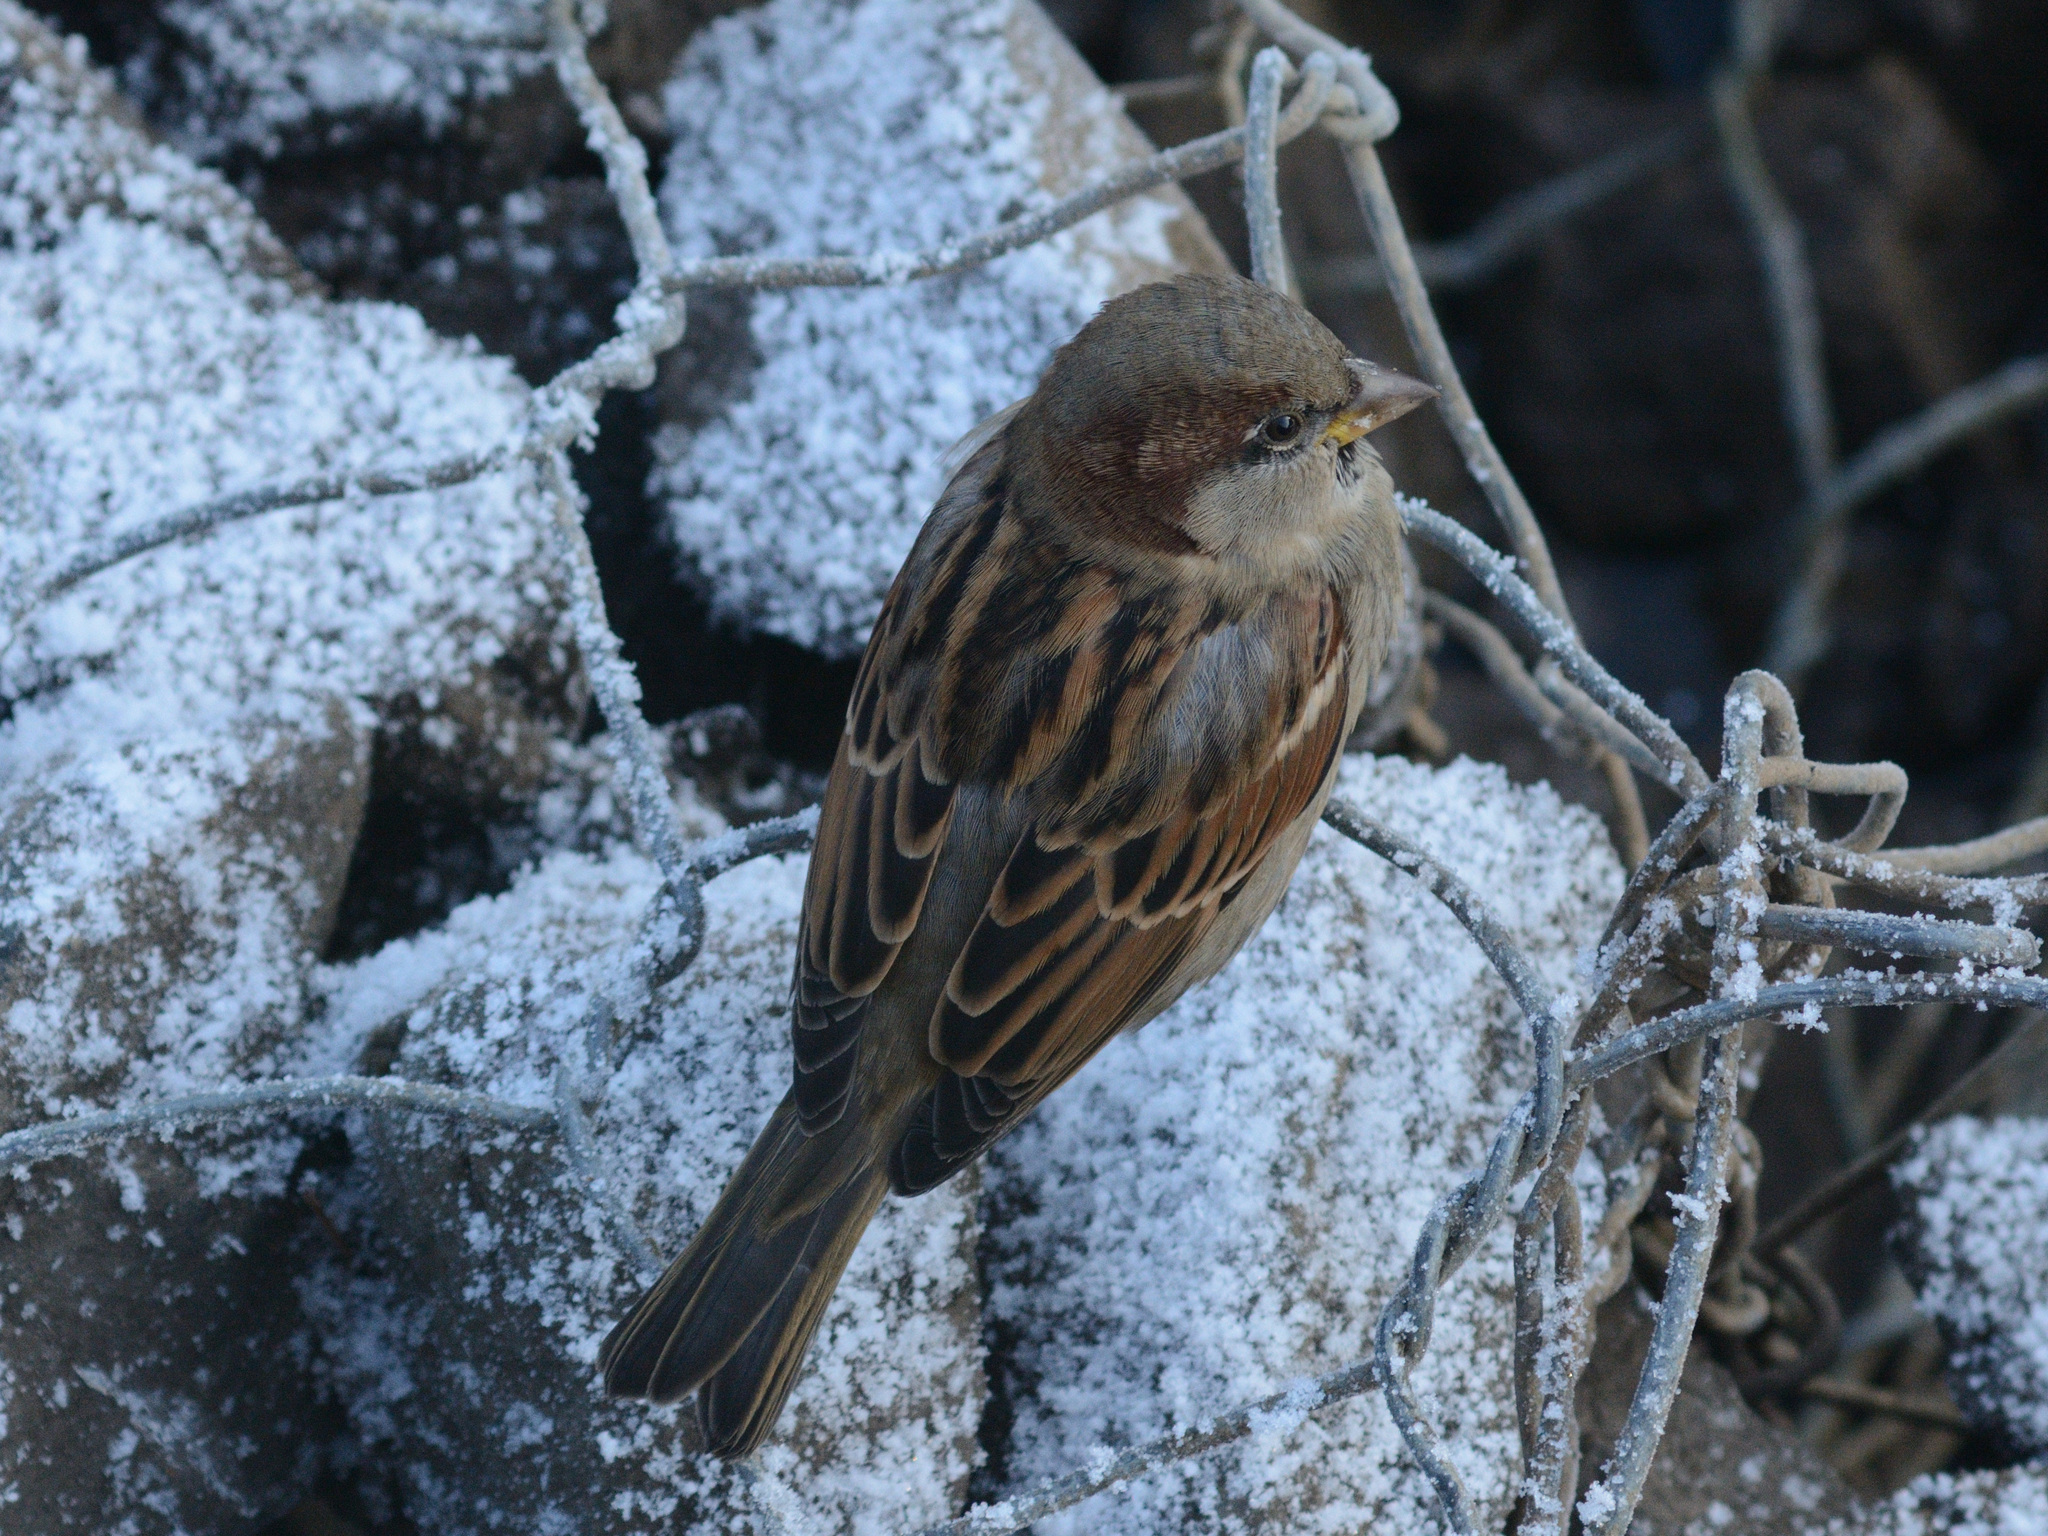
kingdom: Animalia
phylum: Chordata
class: Aves
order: Passeriformes
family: Passeridae
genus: Passer
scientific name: Passer domesticus
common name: House sparrow
